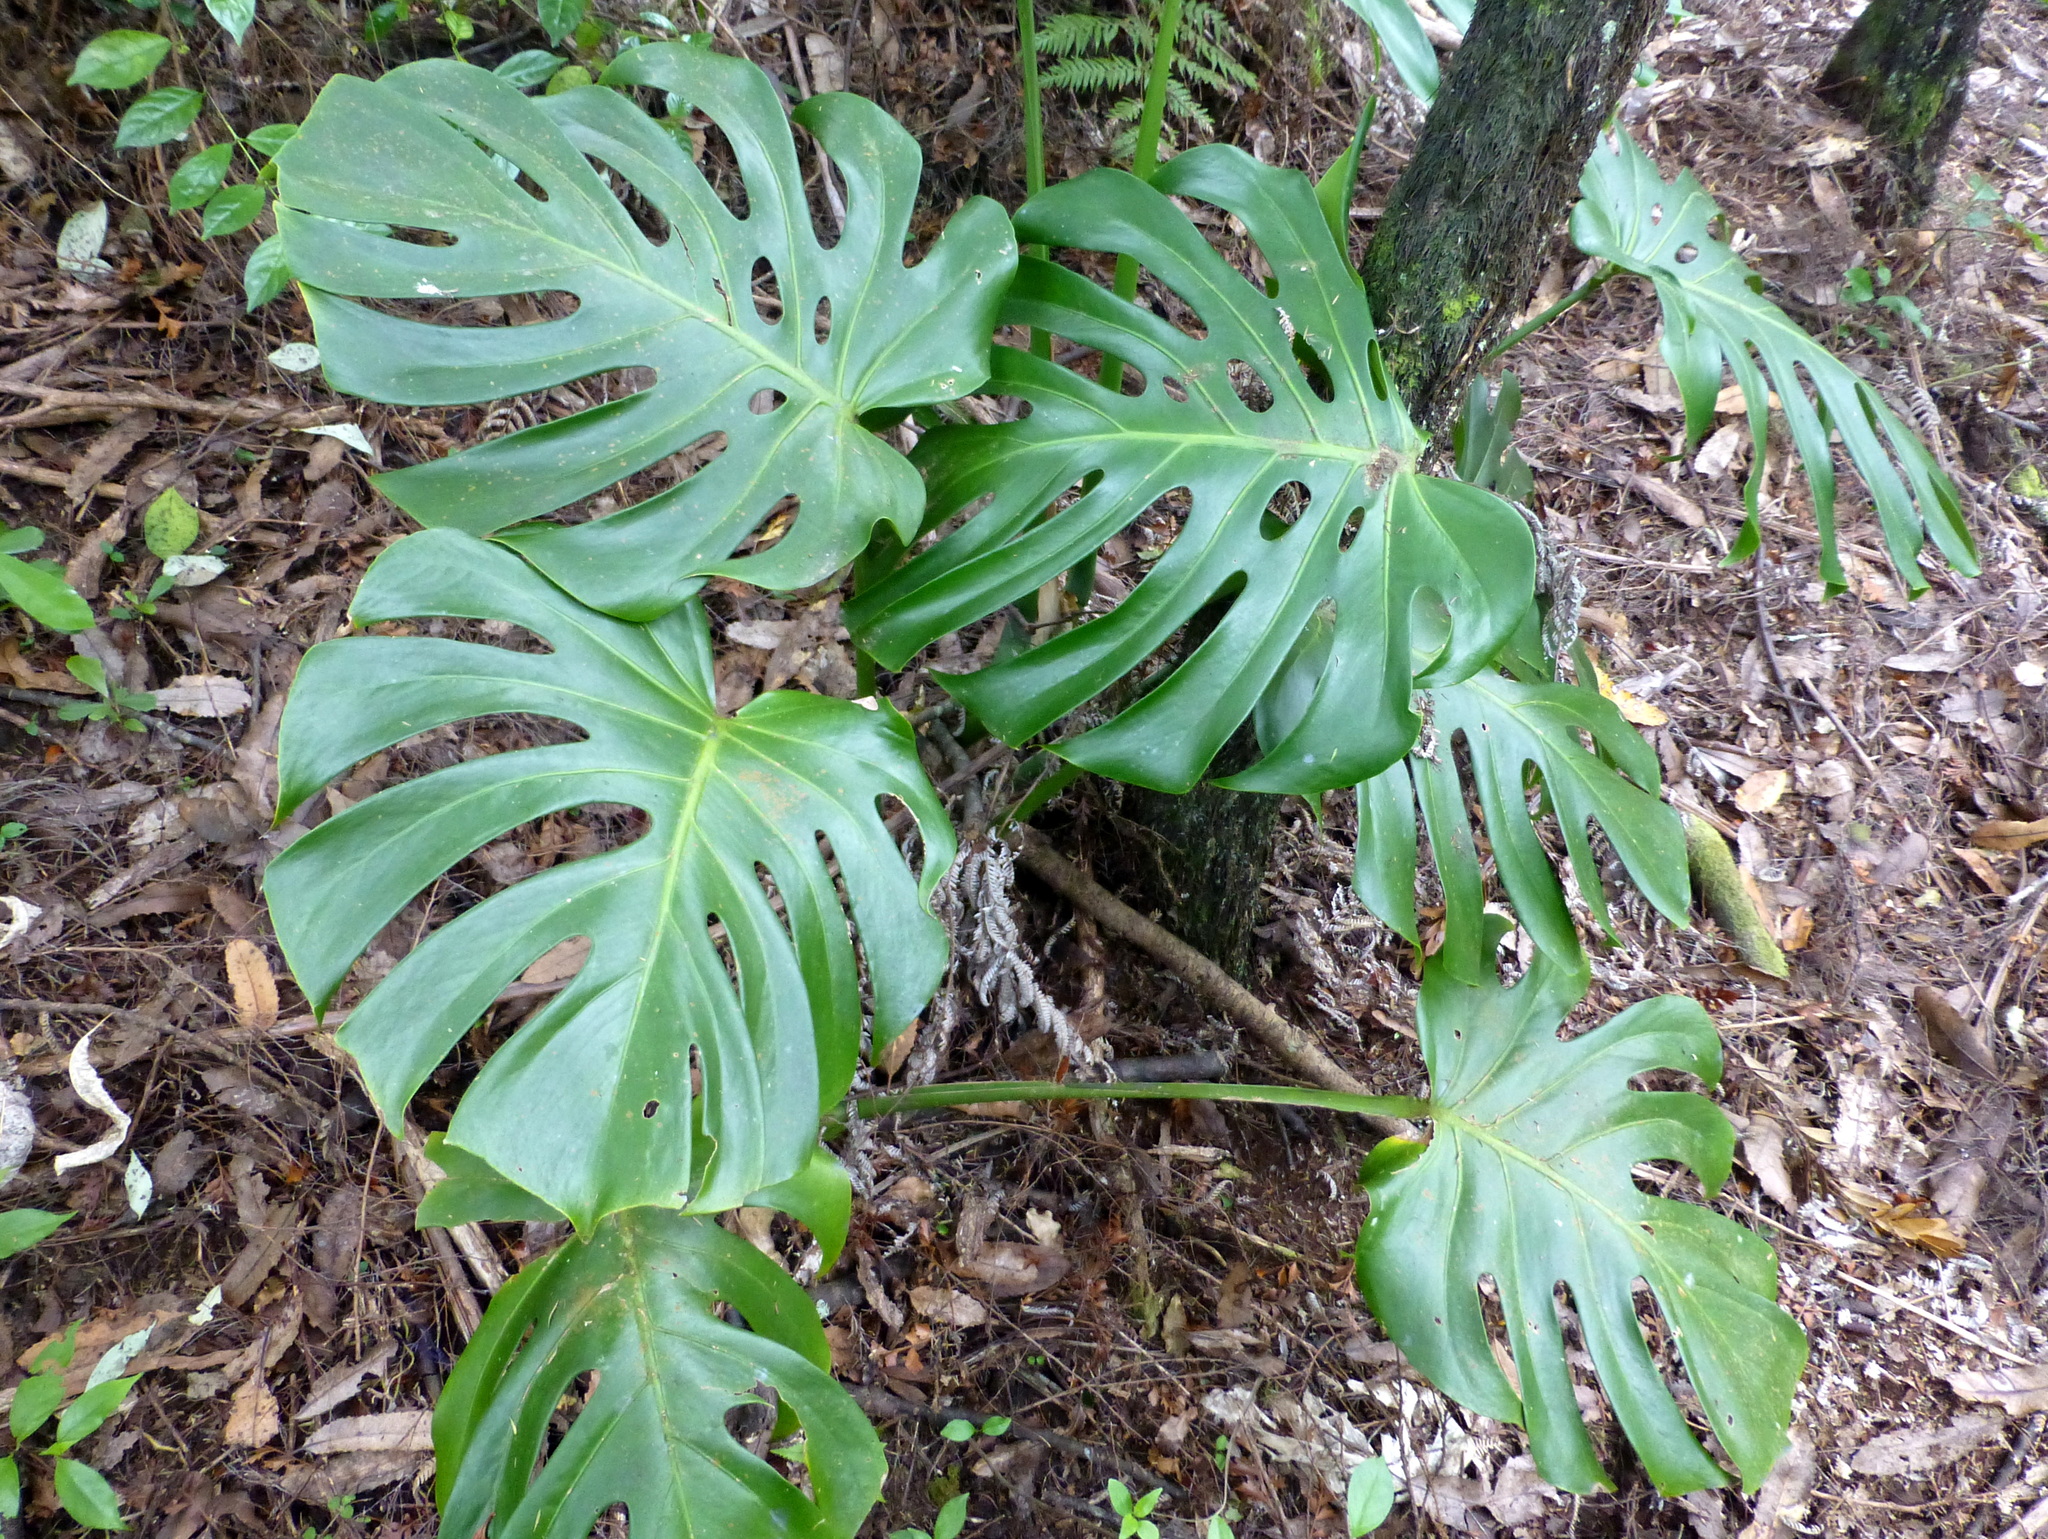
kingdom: Plantae
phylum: Tracheophyta
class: Liliopsida
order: Alismatales
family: Araceae
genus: Monstera
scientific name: Monstera deliciosa
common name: Cut-leaf-philodendron
